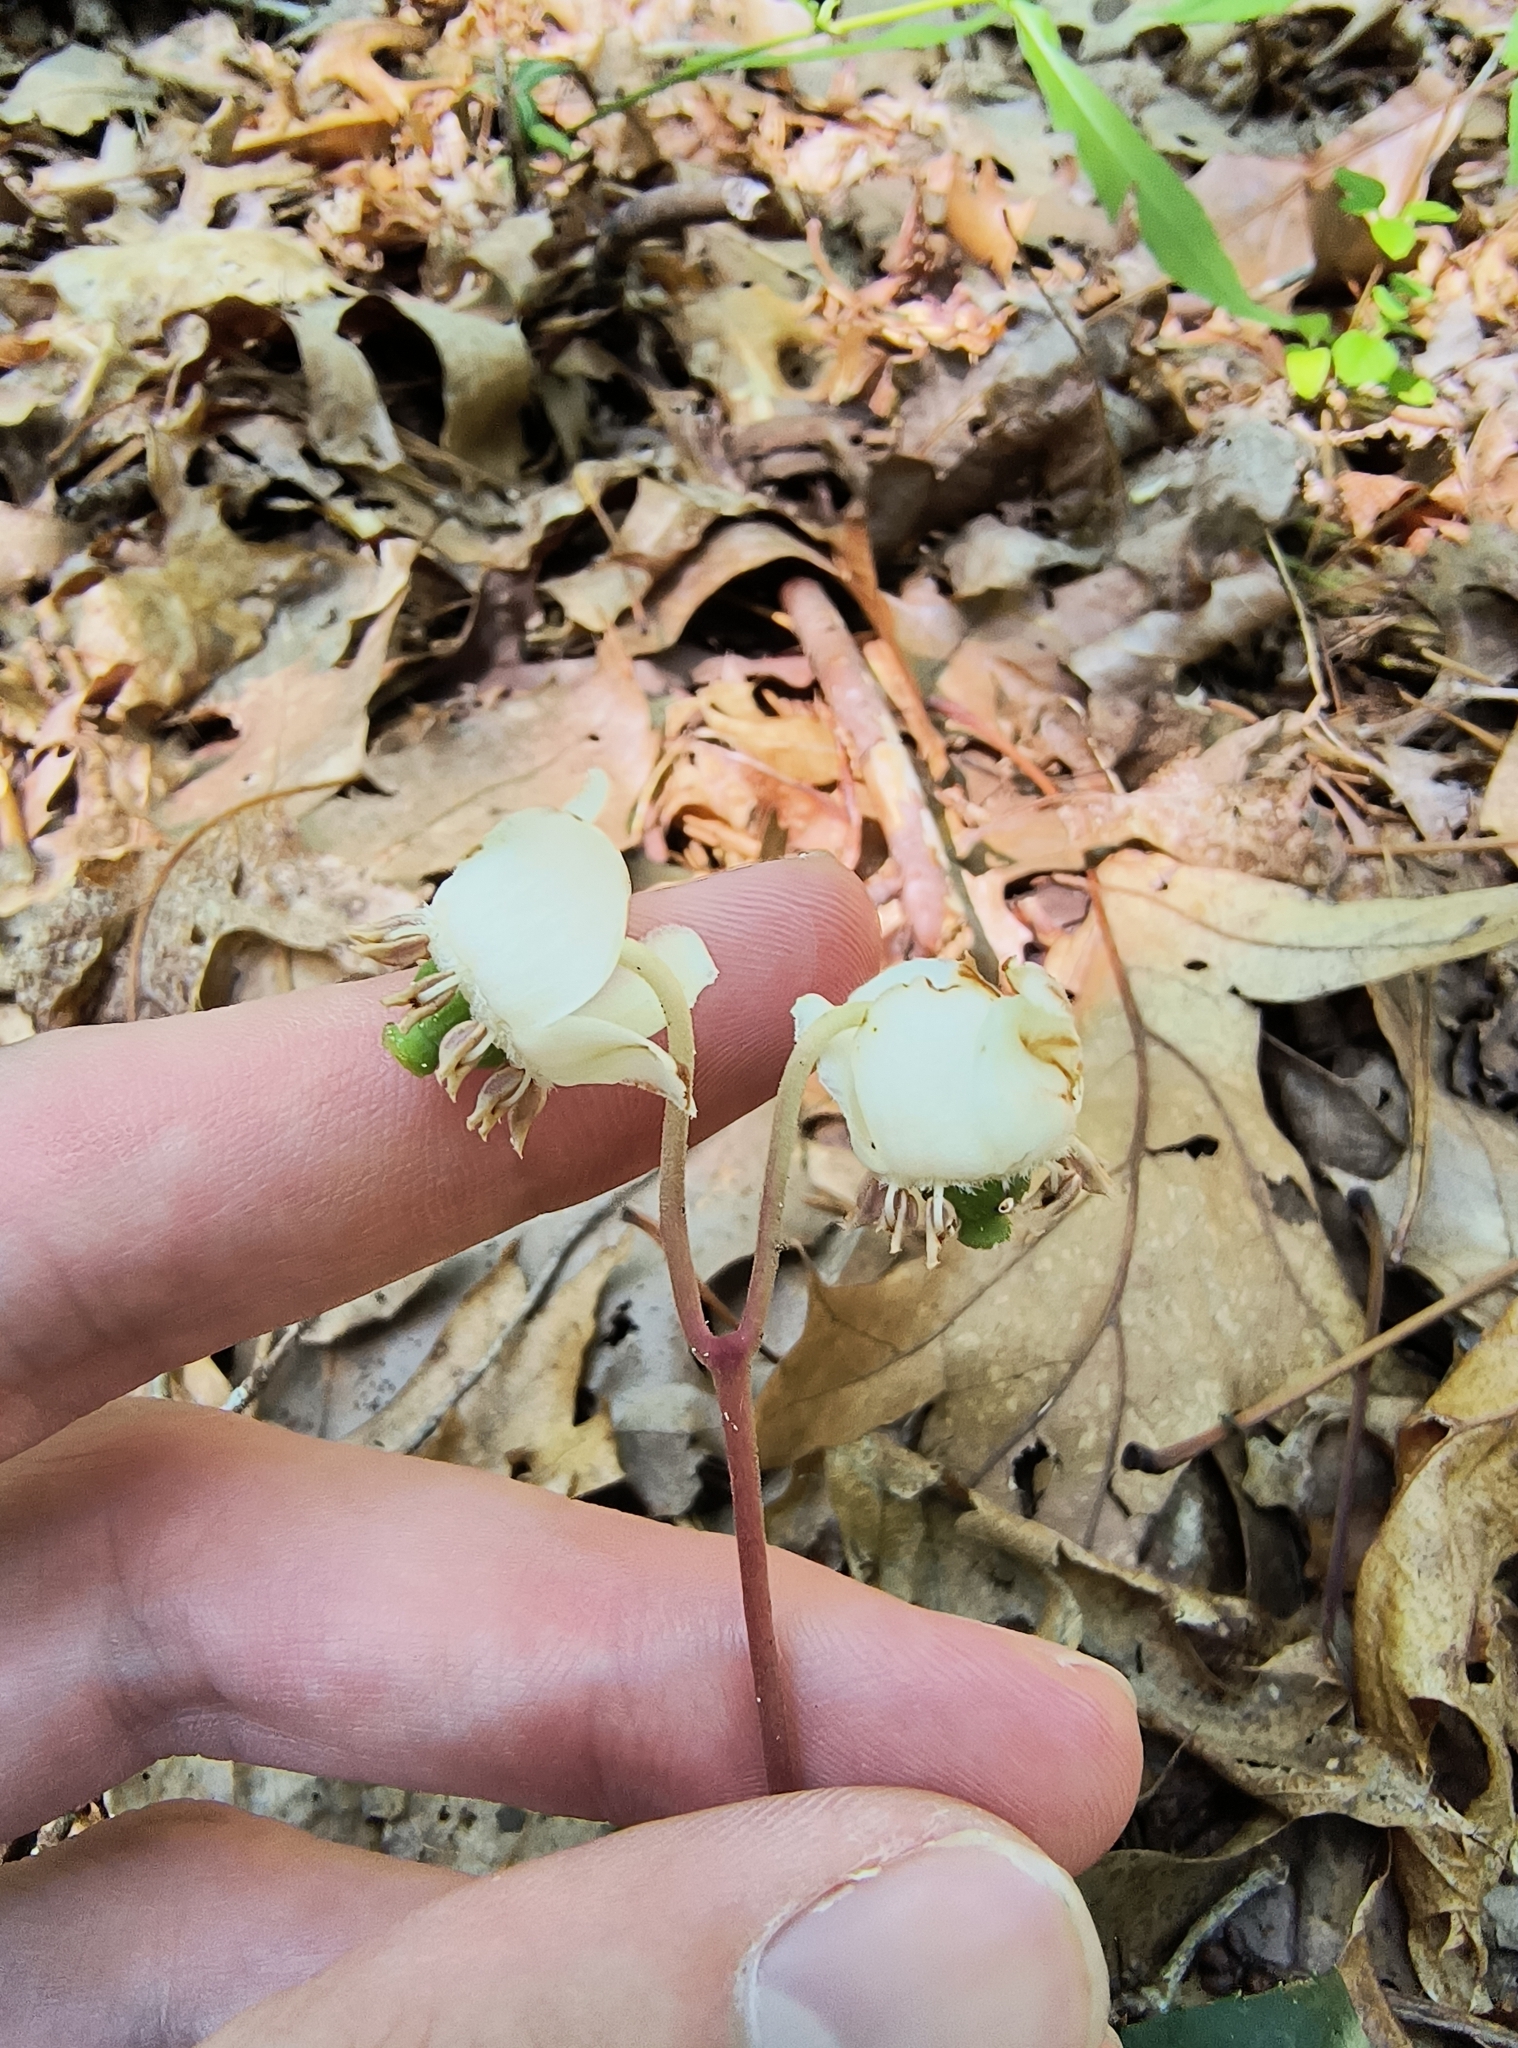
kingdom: Plantae
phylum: Tracheophyta
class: Magnoliopsida
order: Ericales
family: Ericaceae
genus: Chimaphila
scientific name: Chimaphila maculata
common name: Spotted pipsissewa
